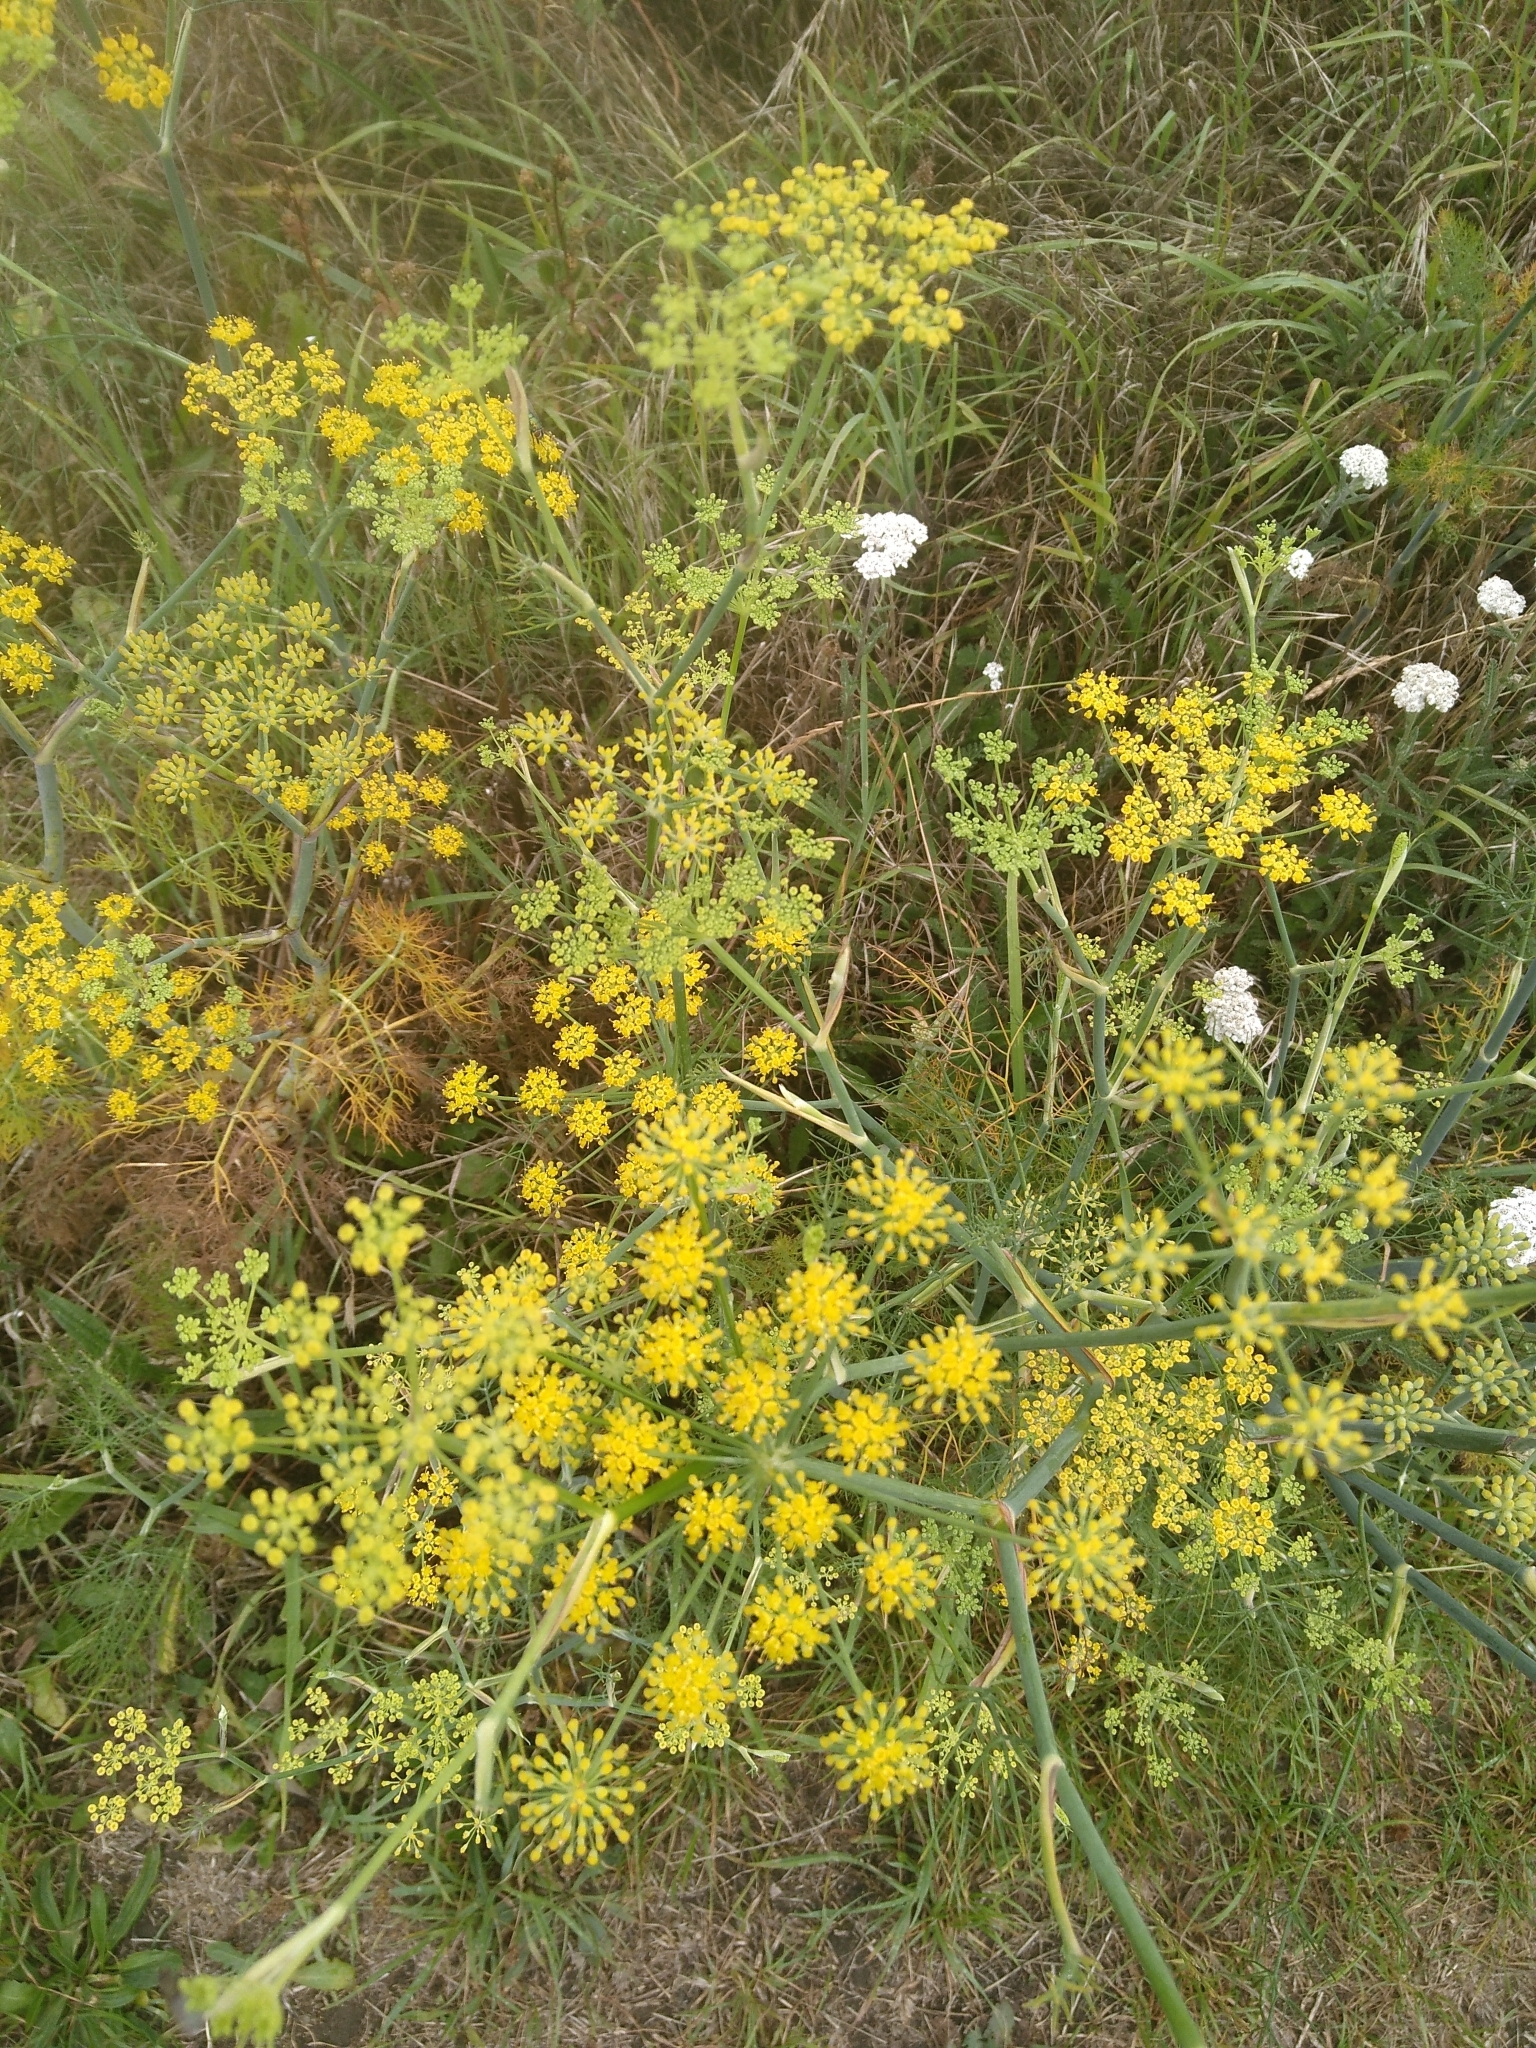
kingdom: Plantae
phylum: Tracheophyta
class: Magnoliopsida
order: Apiales
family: Apiaceae
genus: Foeniculum
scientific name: Foeniculum vulgare
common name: Fennel
